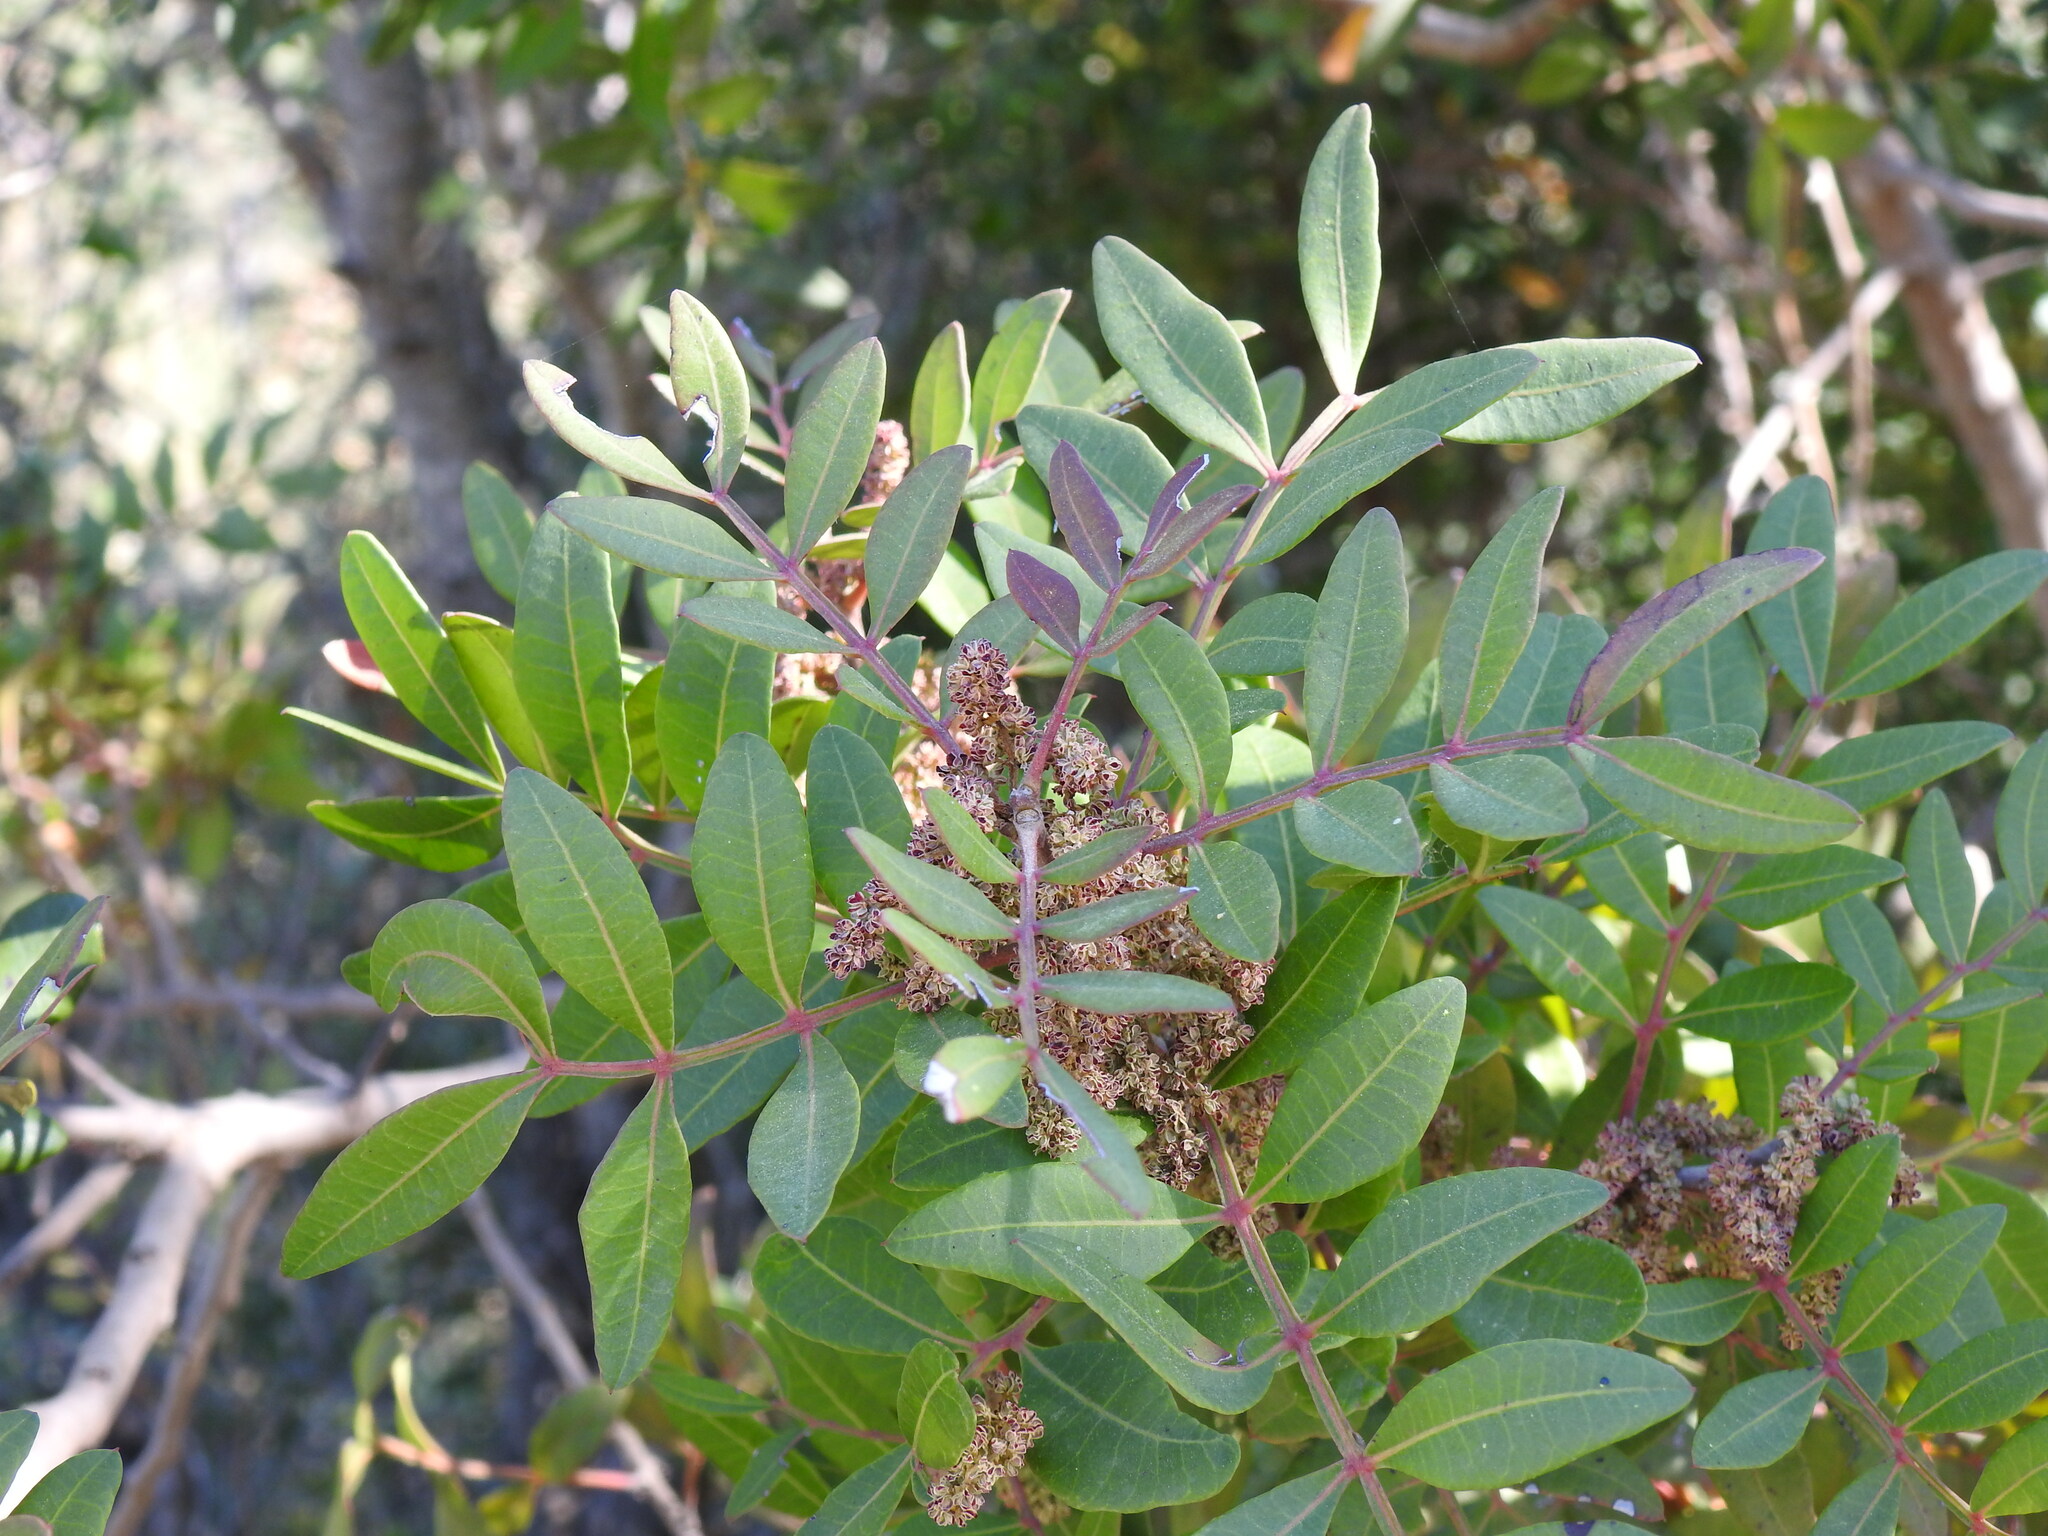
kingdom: Plantae
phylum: Tracheophyta
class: Magnoliopsida
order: Sapindales
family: Anacardiaceae
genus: Pistacia
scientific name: Pistacia lentiscus
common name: Lentisk
